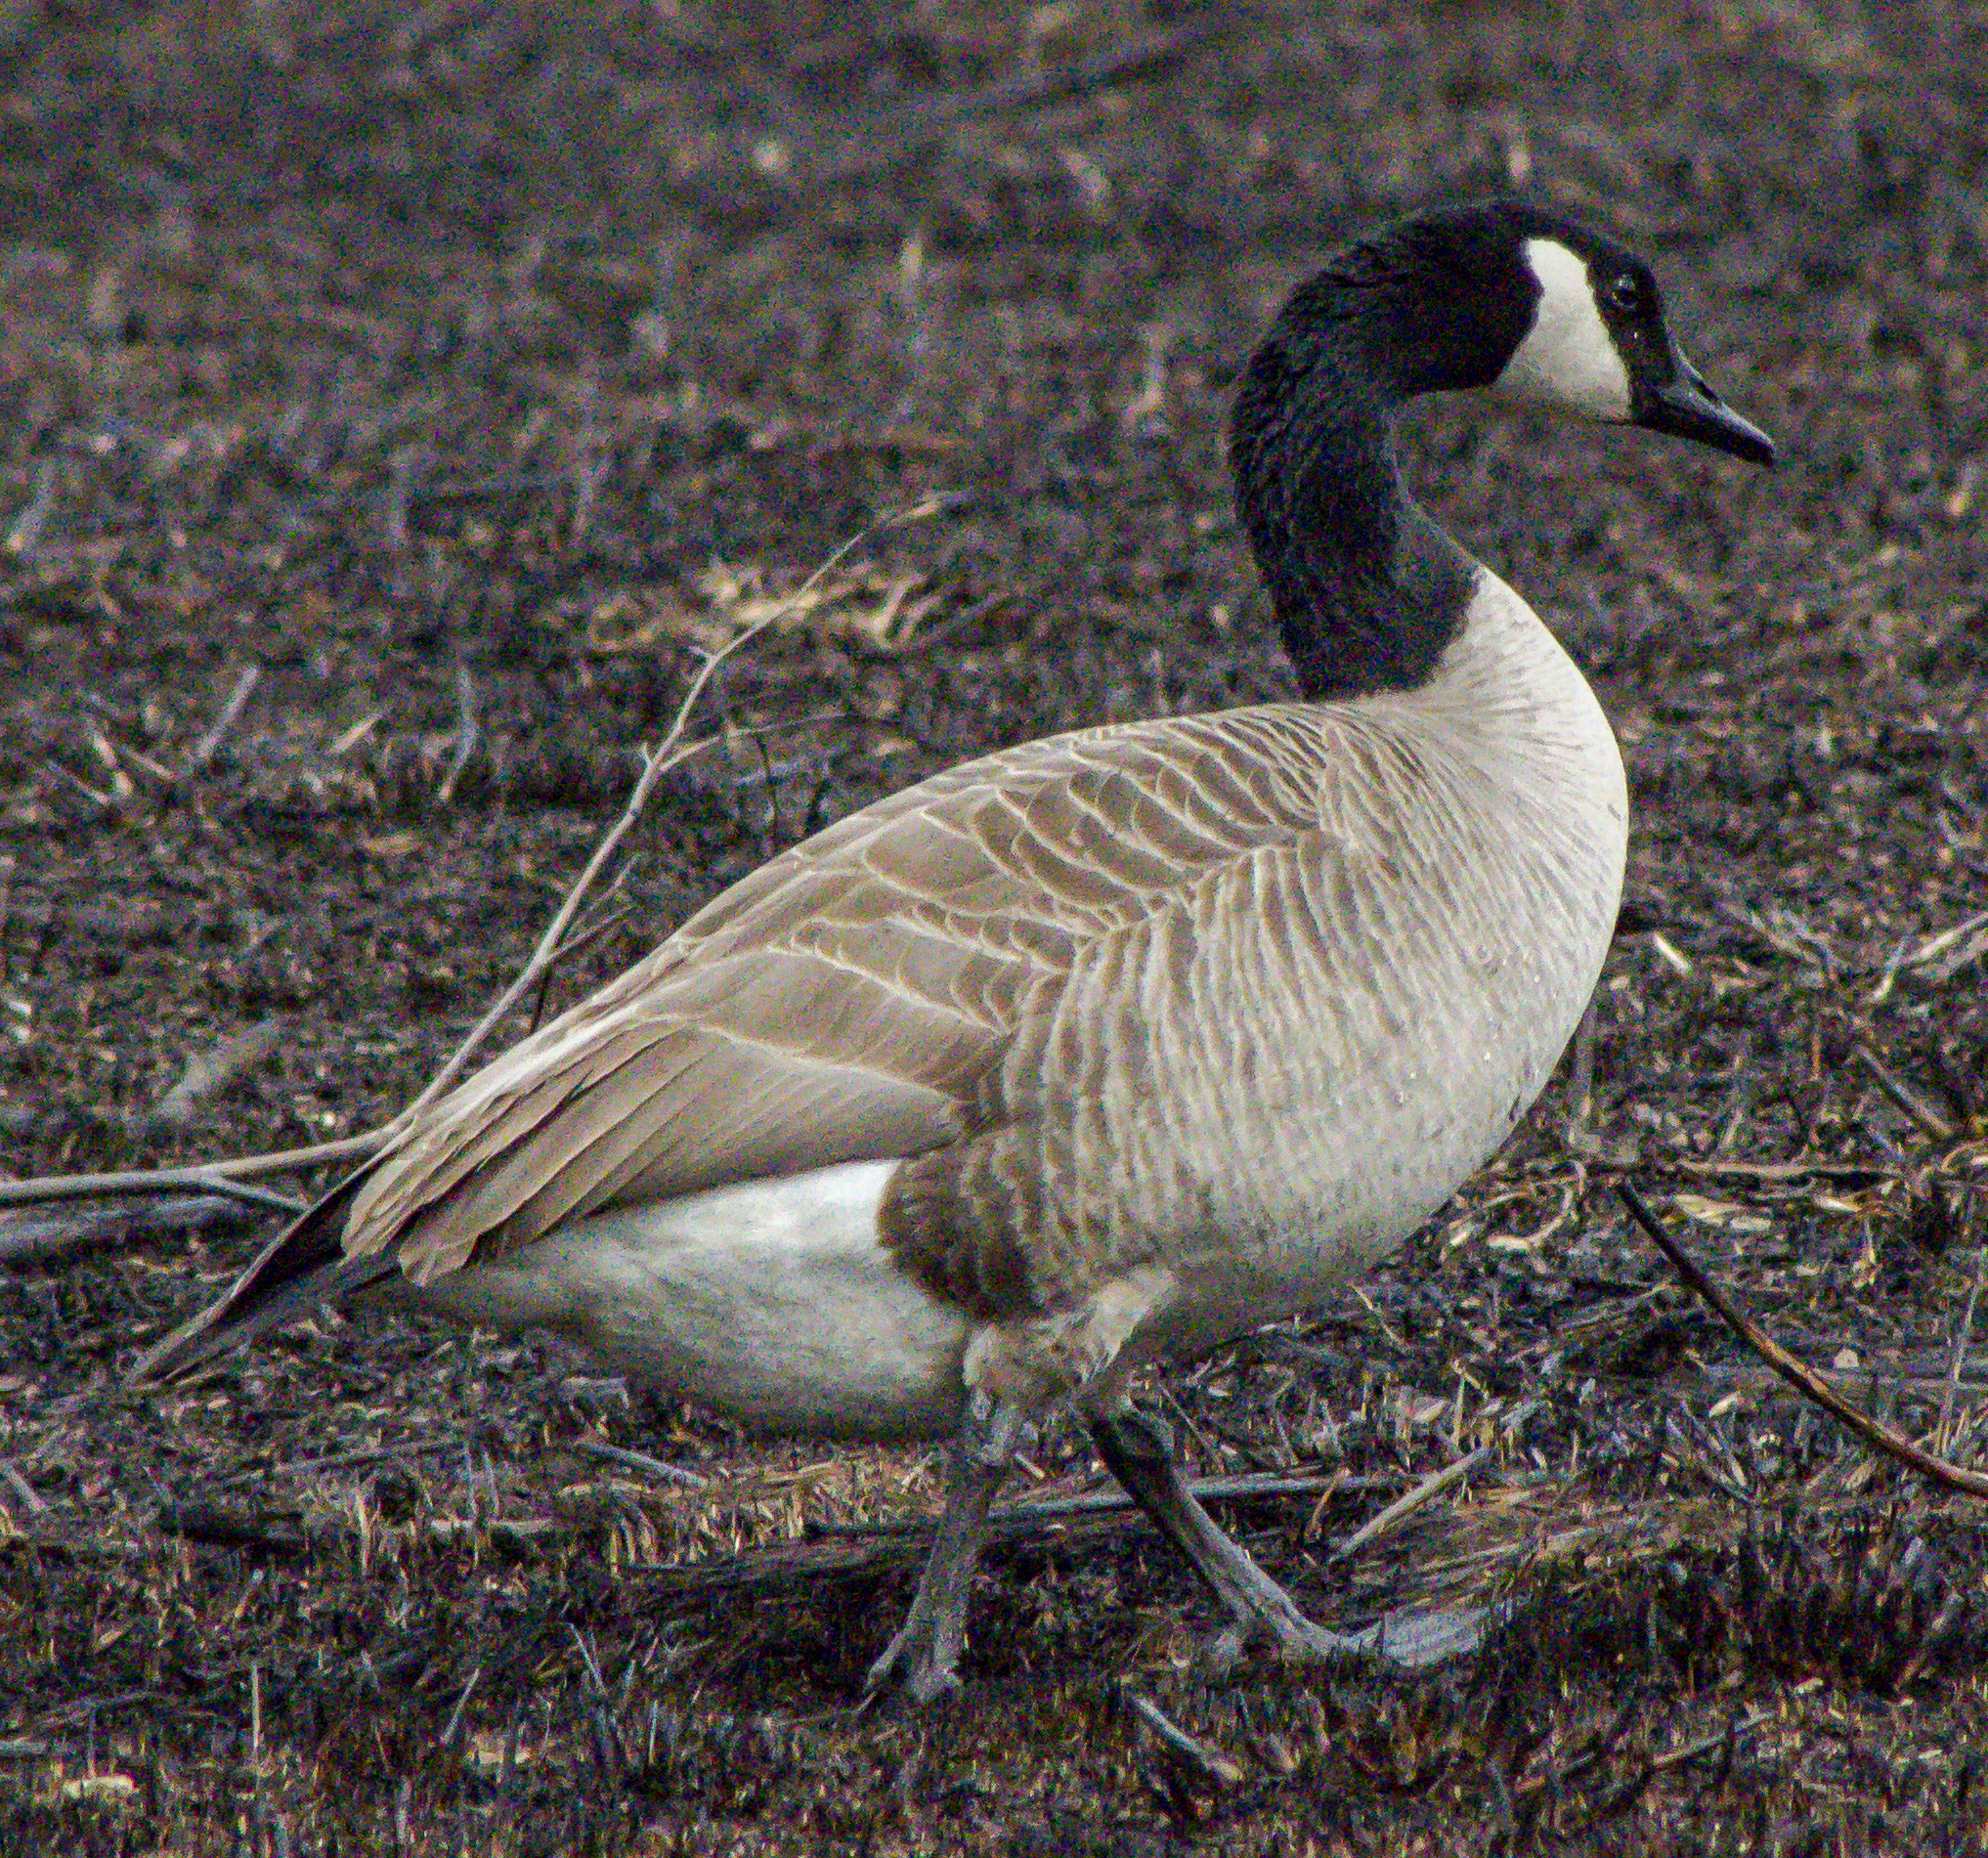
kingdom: Animalia
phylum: Chordata
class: Aves
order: Anseriformes
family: Anatidae
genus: Branta
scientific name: Branta canadensis
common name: Canada goose
